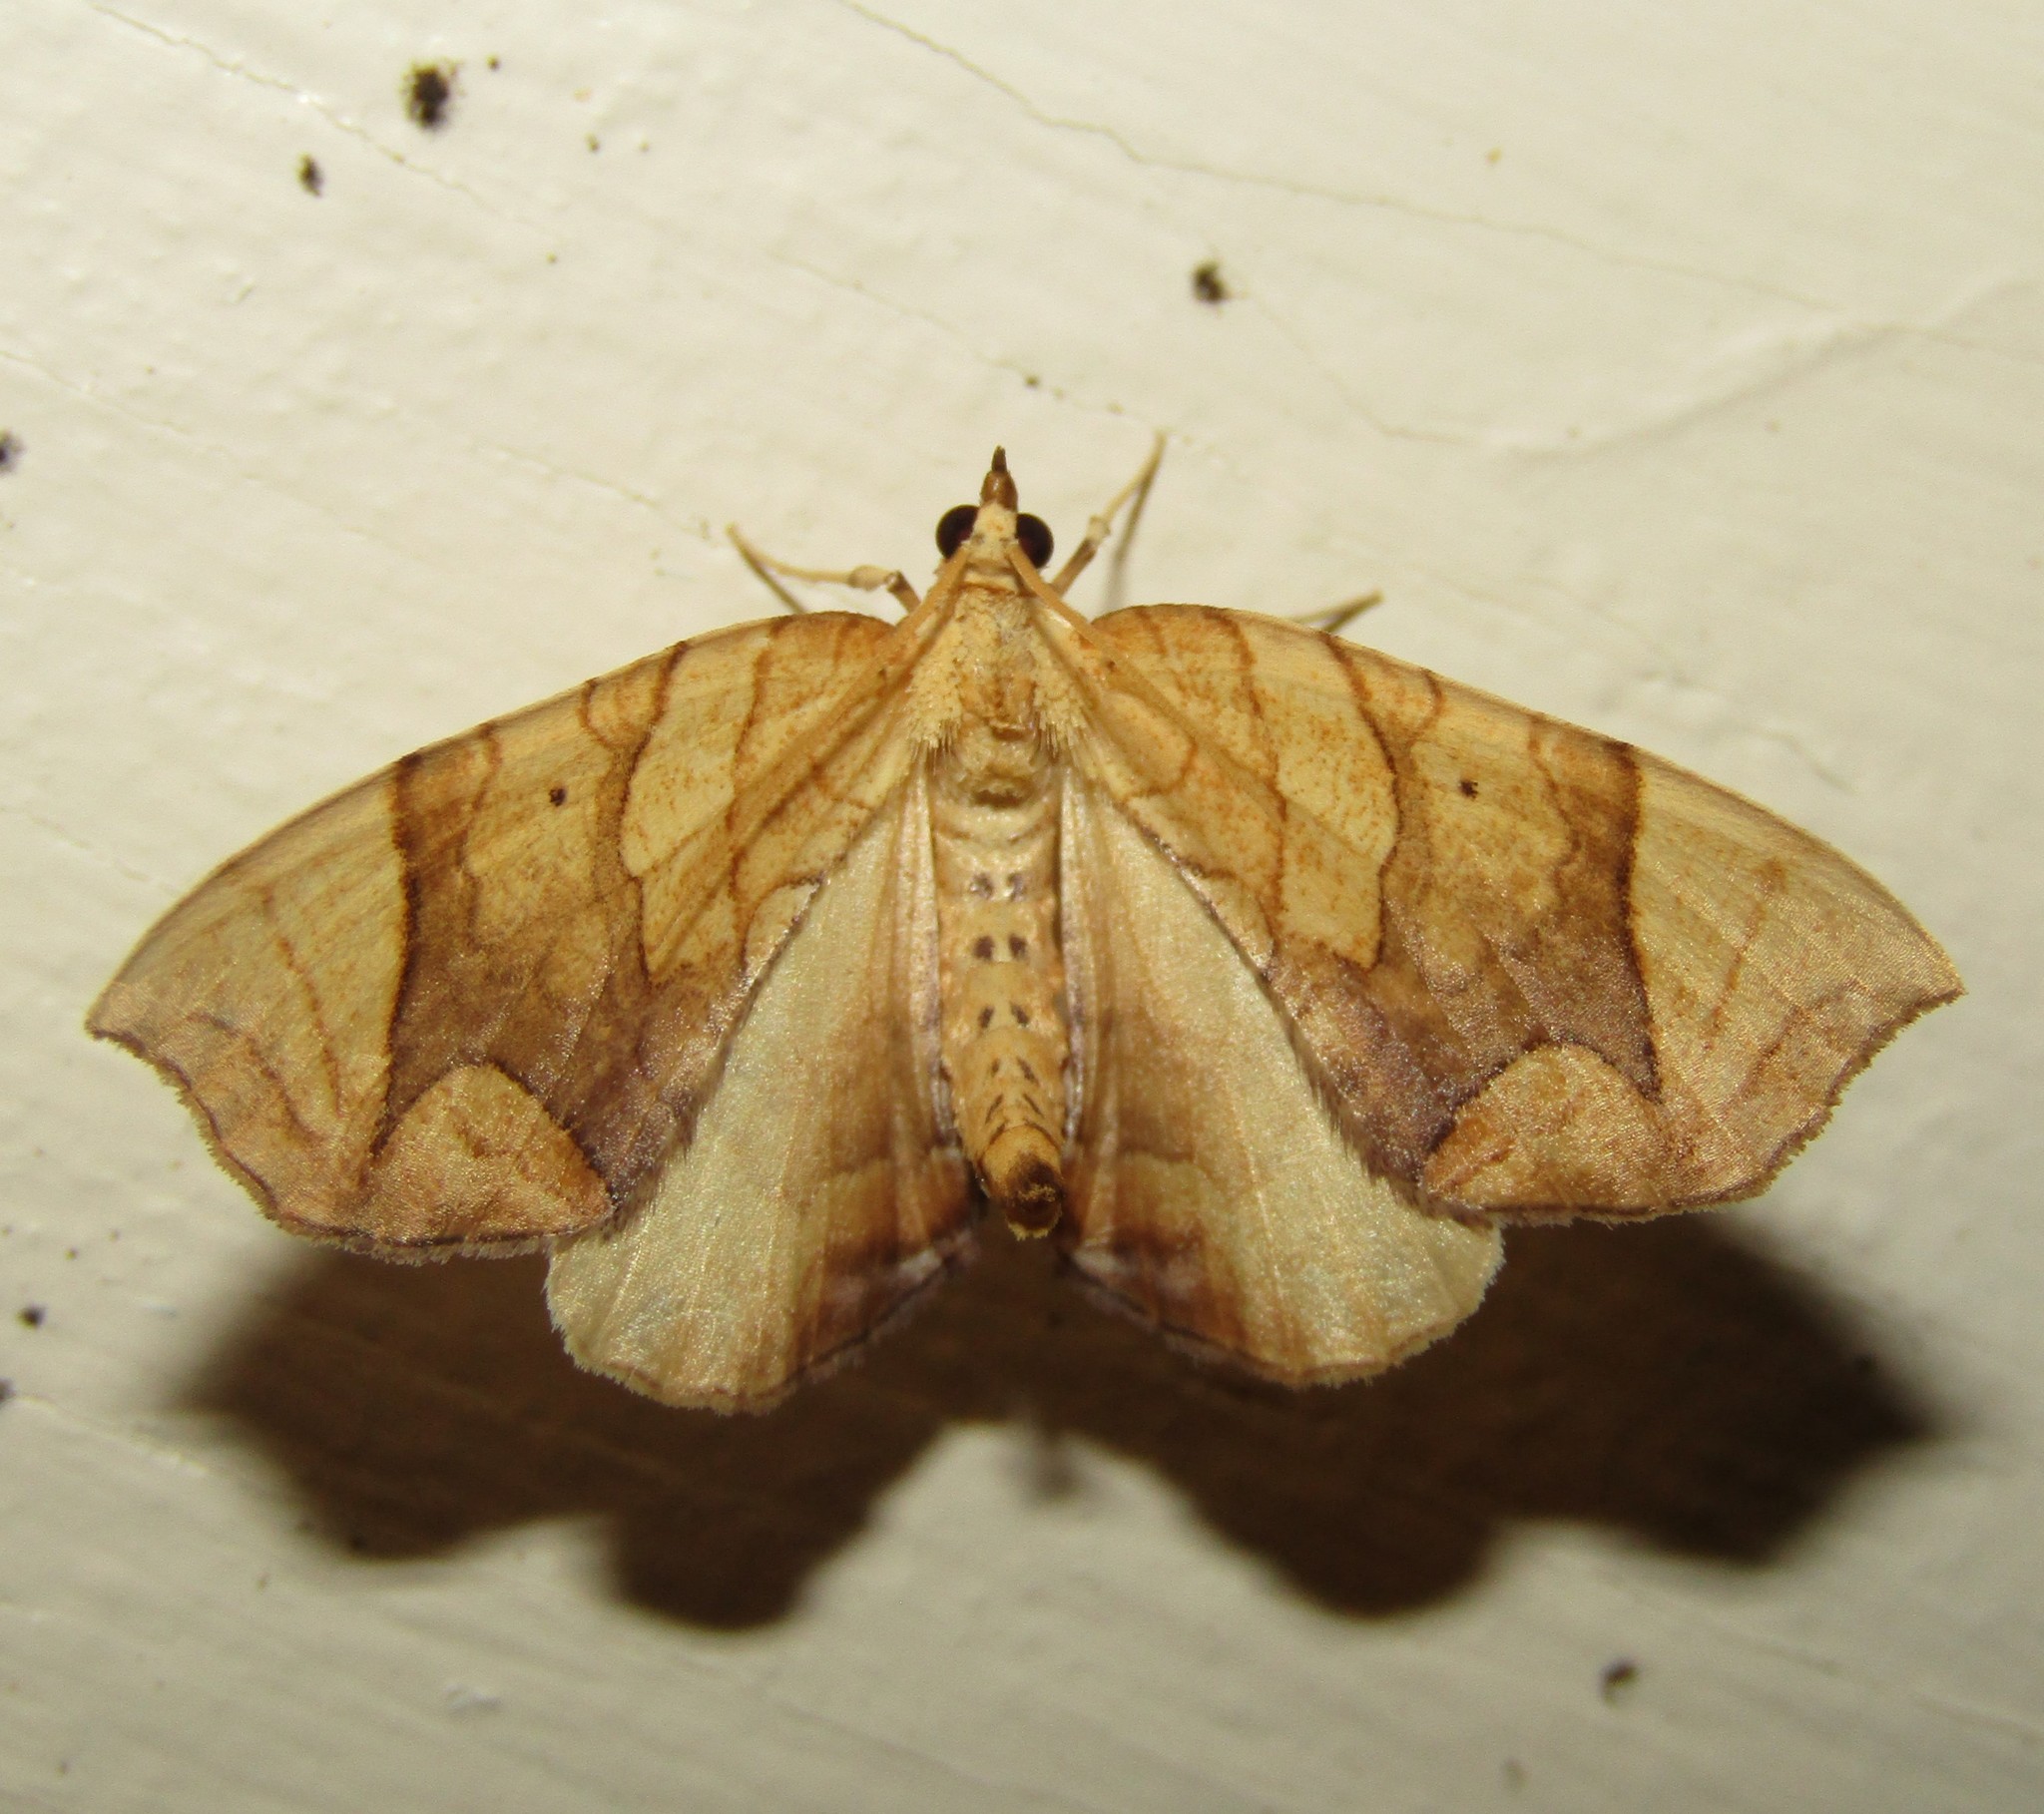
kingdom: Animalia
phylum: Arthropoda
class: Insecta
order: Lepidoptera
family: Geometridae
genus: Eulithis
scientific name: Eulithis
